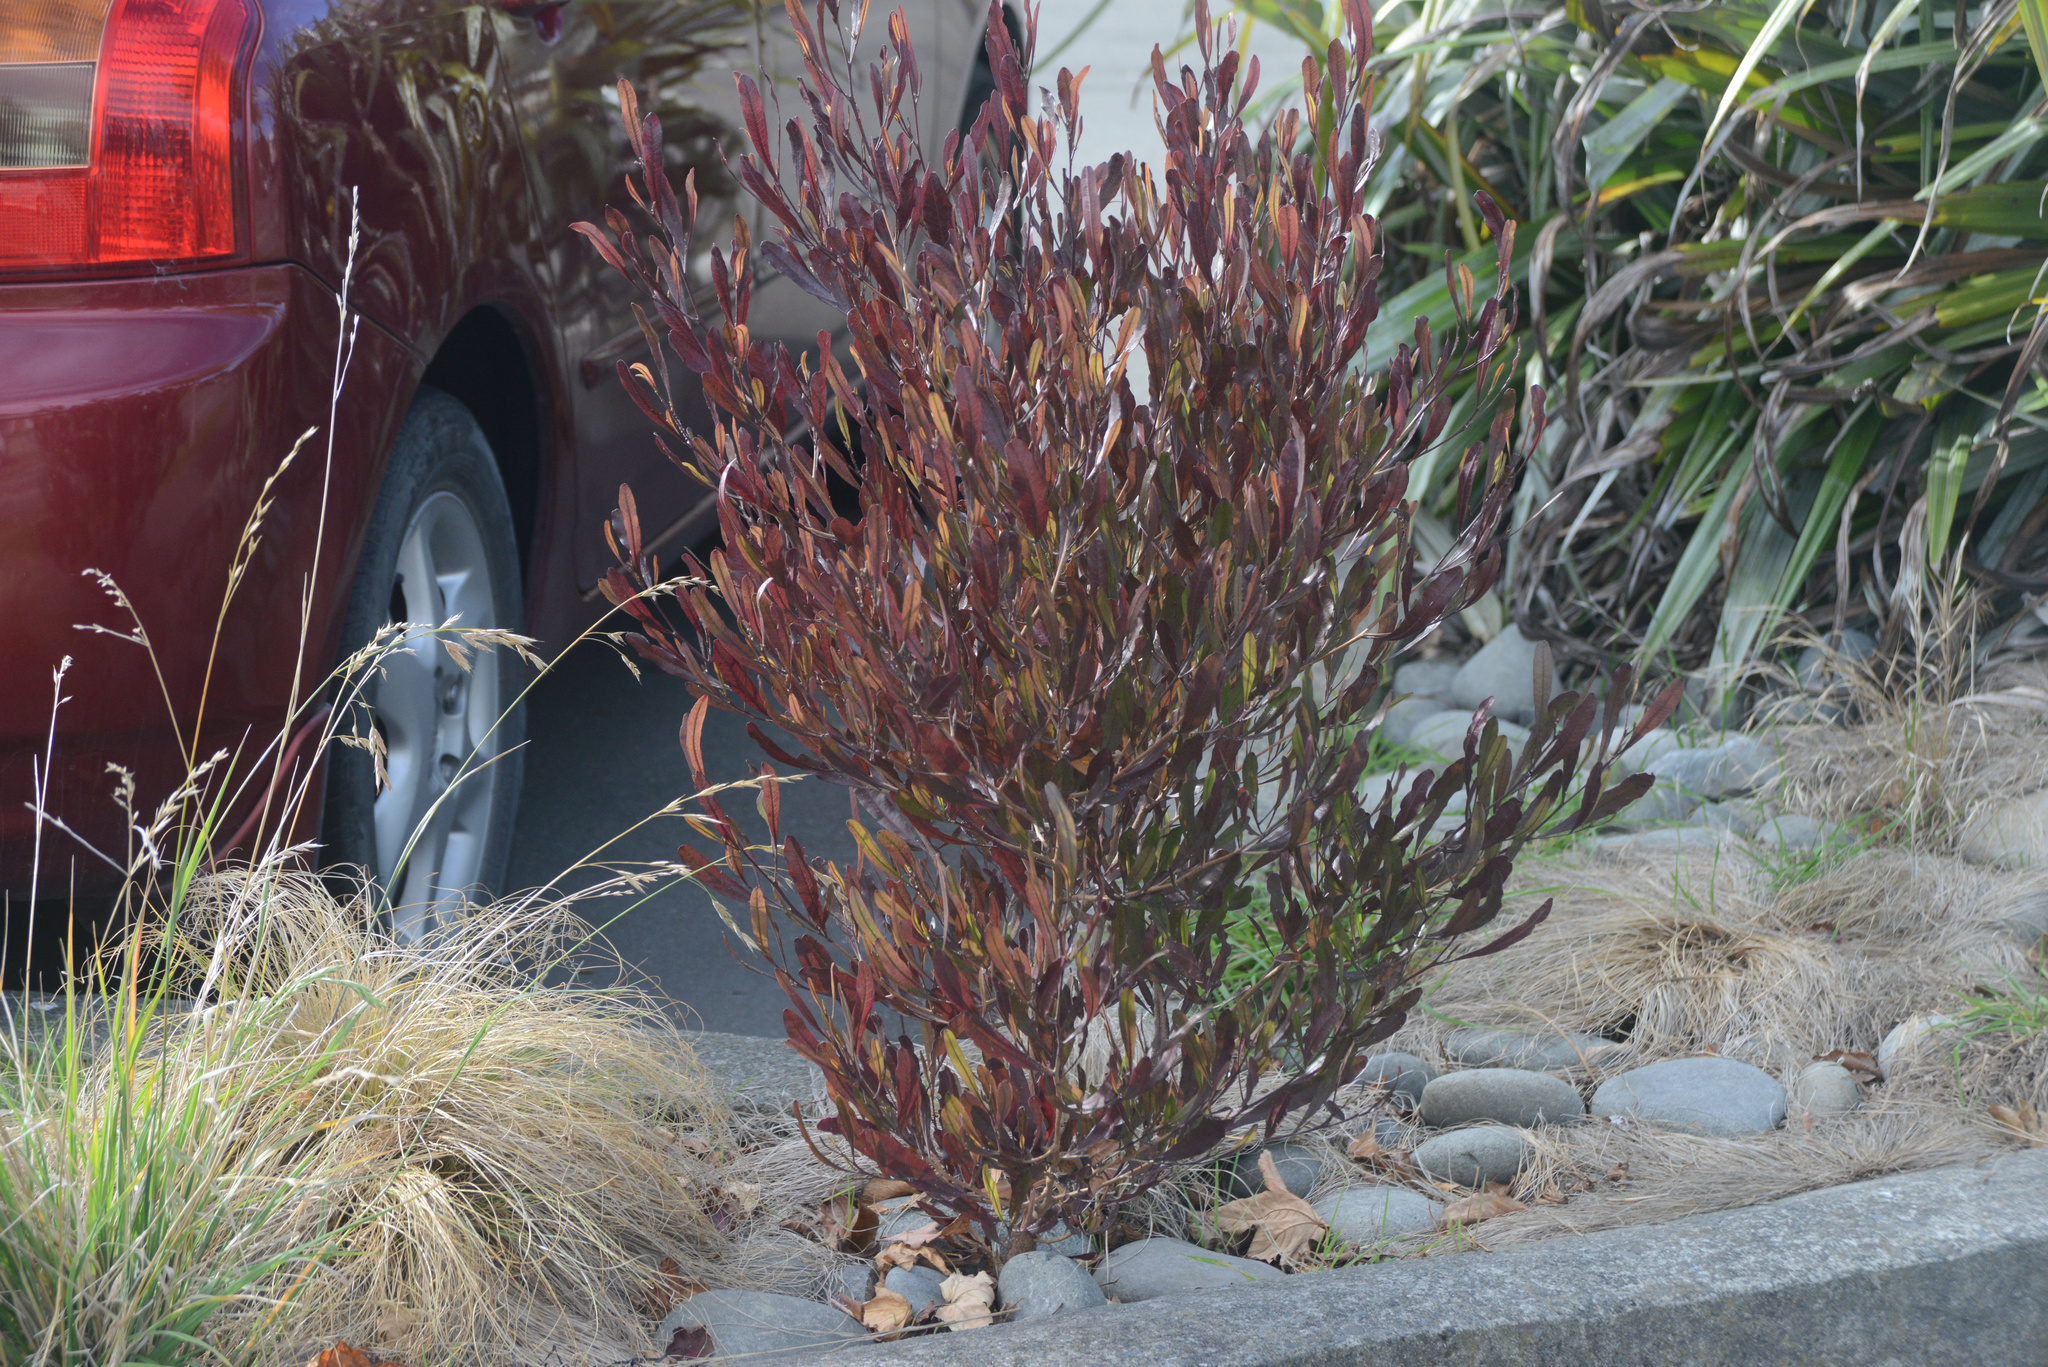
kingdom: Plantae
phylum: Tracheophyta
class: Magnoliopsida
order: Sapindales
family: Sapindaceae
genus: Dodonaea
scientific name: Dodonaea viscosa
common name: Hopbush
